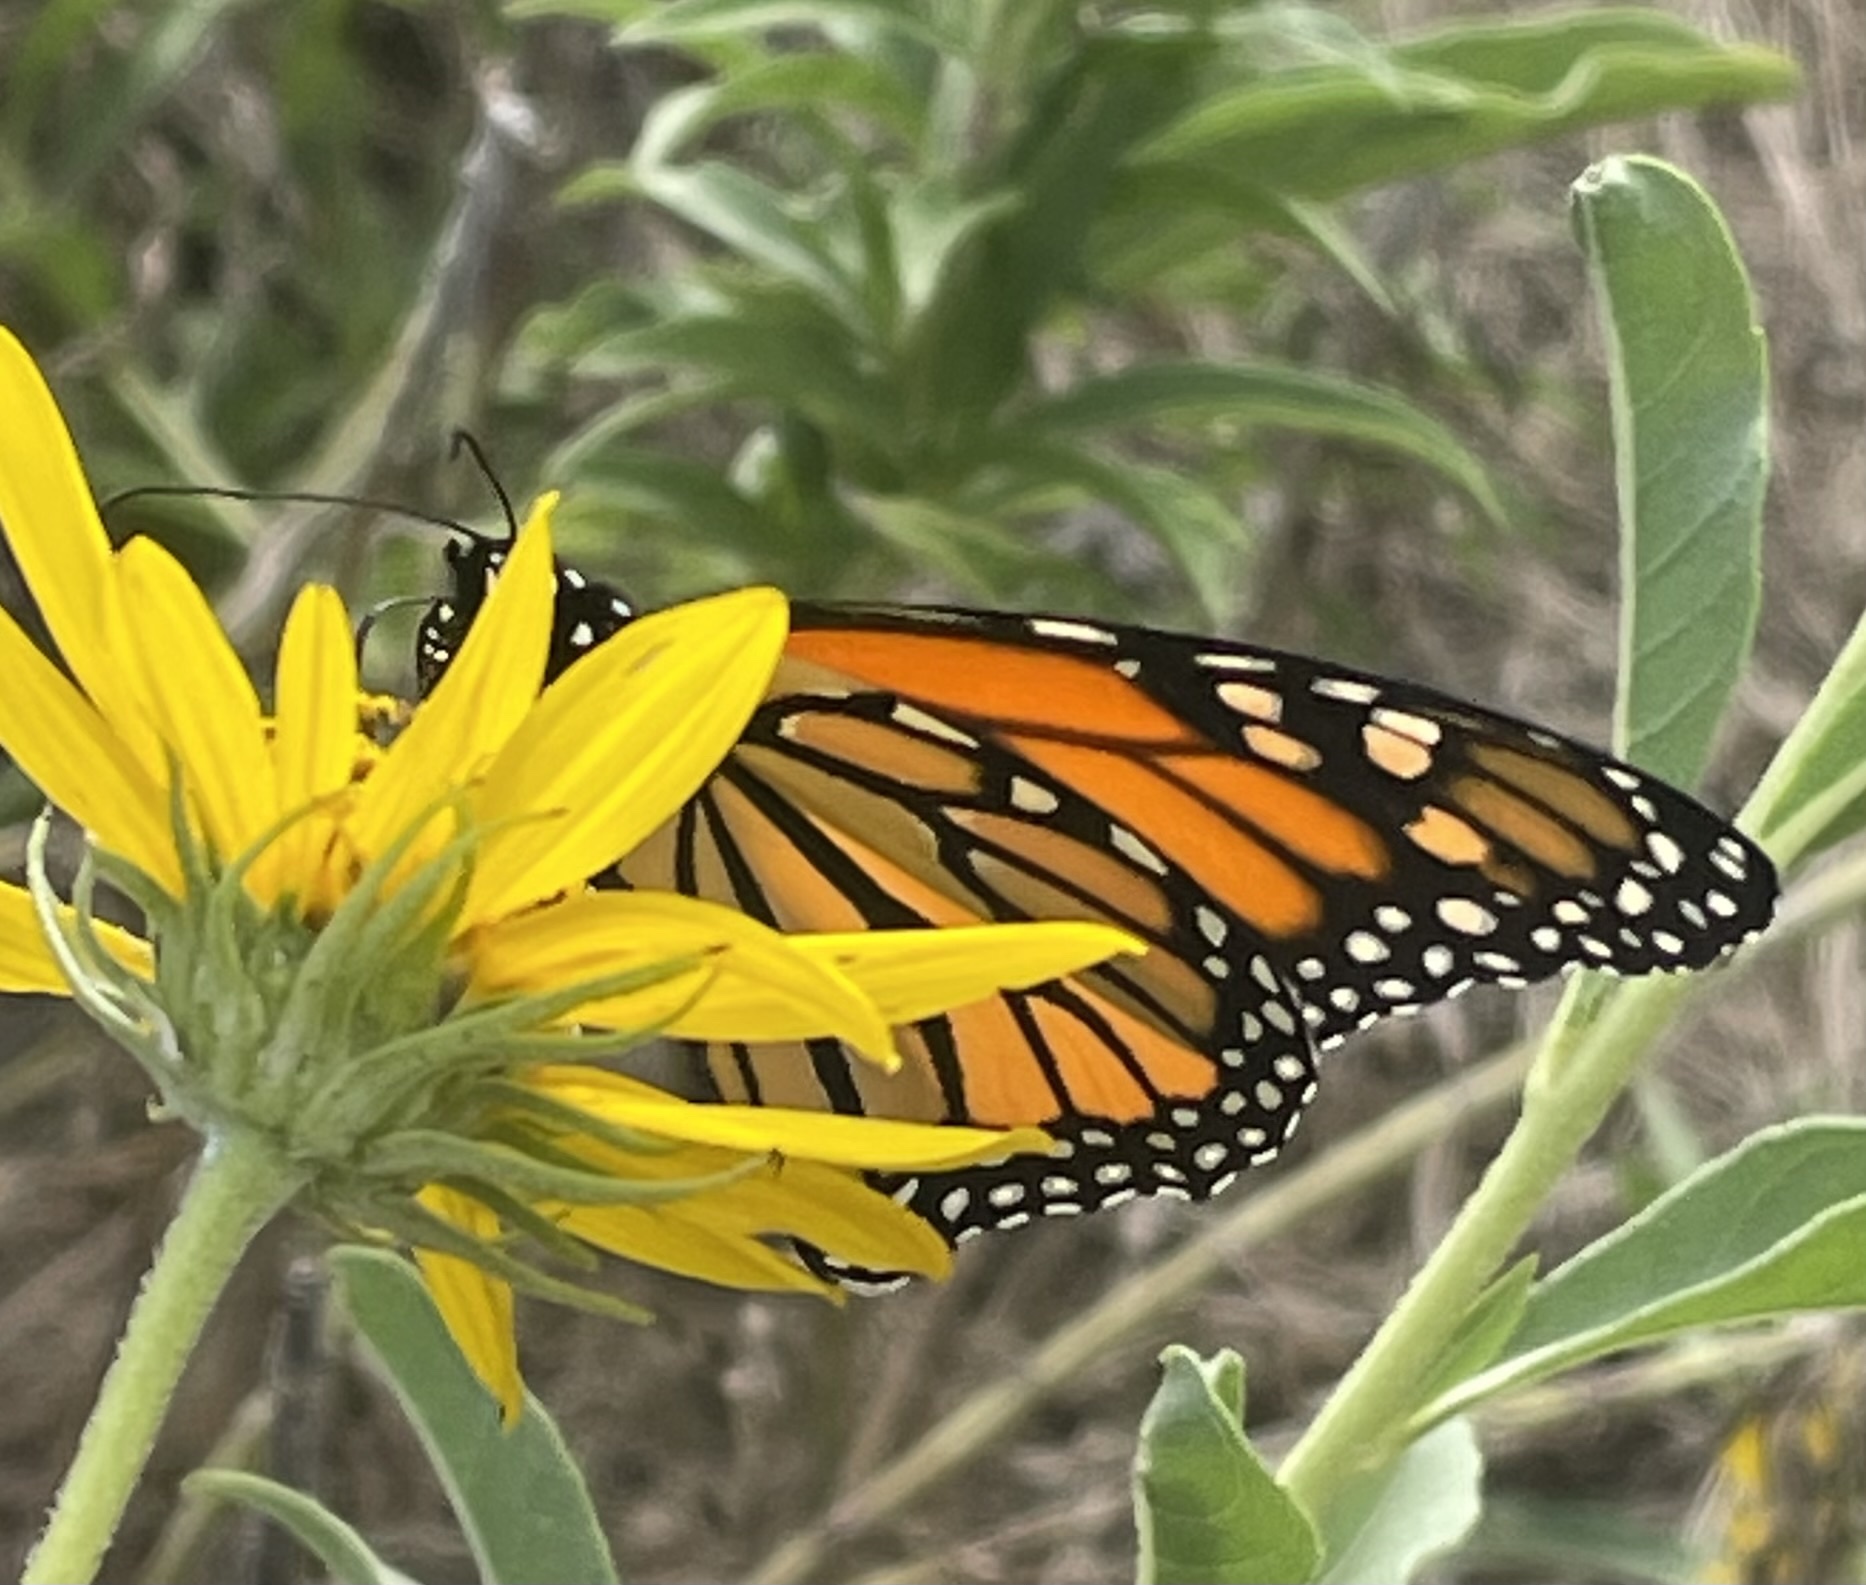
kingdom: Animalia
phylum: Arthropoda
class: Insecta
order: Lepidoptera
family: Nymphalidae
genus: Danaus
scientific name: Danaus plexippus
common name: Monarch
